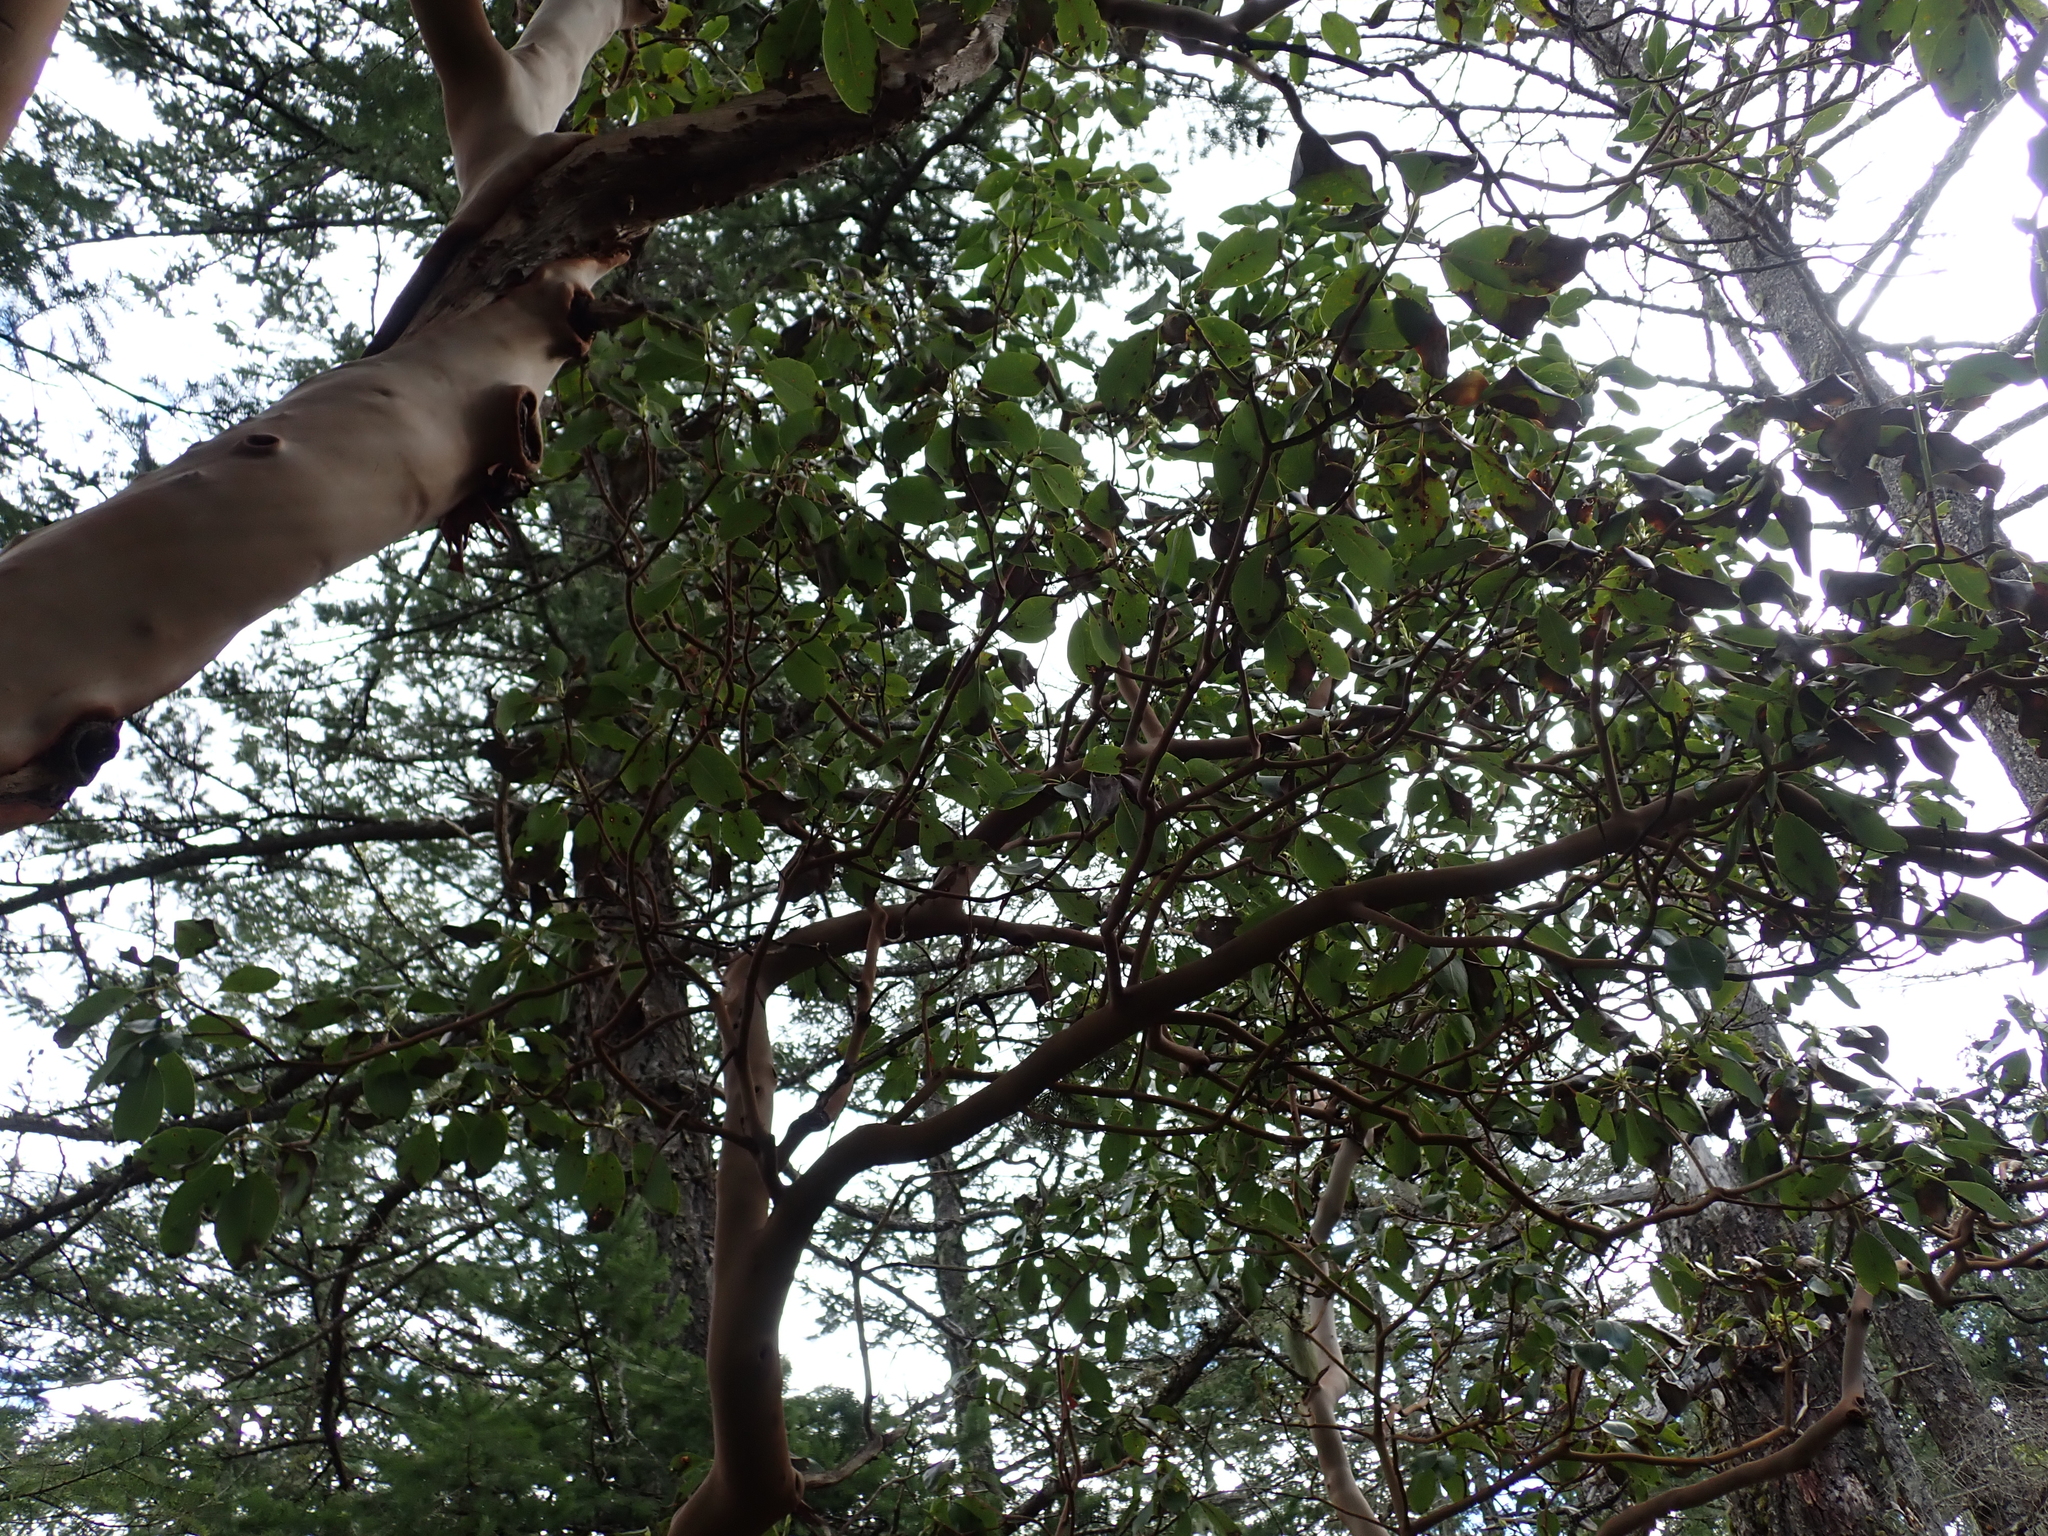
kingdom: Plantae
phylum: Tracheophyta
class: Magnoliopsida
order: Ericales
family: Ericaceae
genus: Arbutus
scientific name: Arbutus menziesii
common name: Pacific madrone
